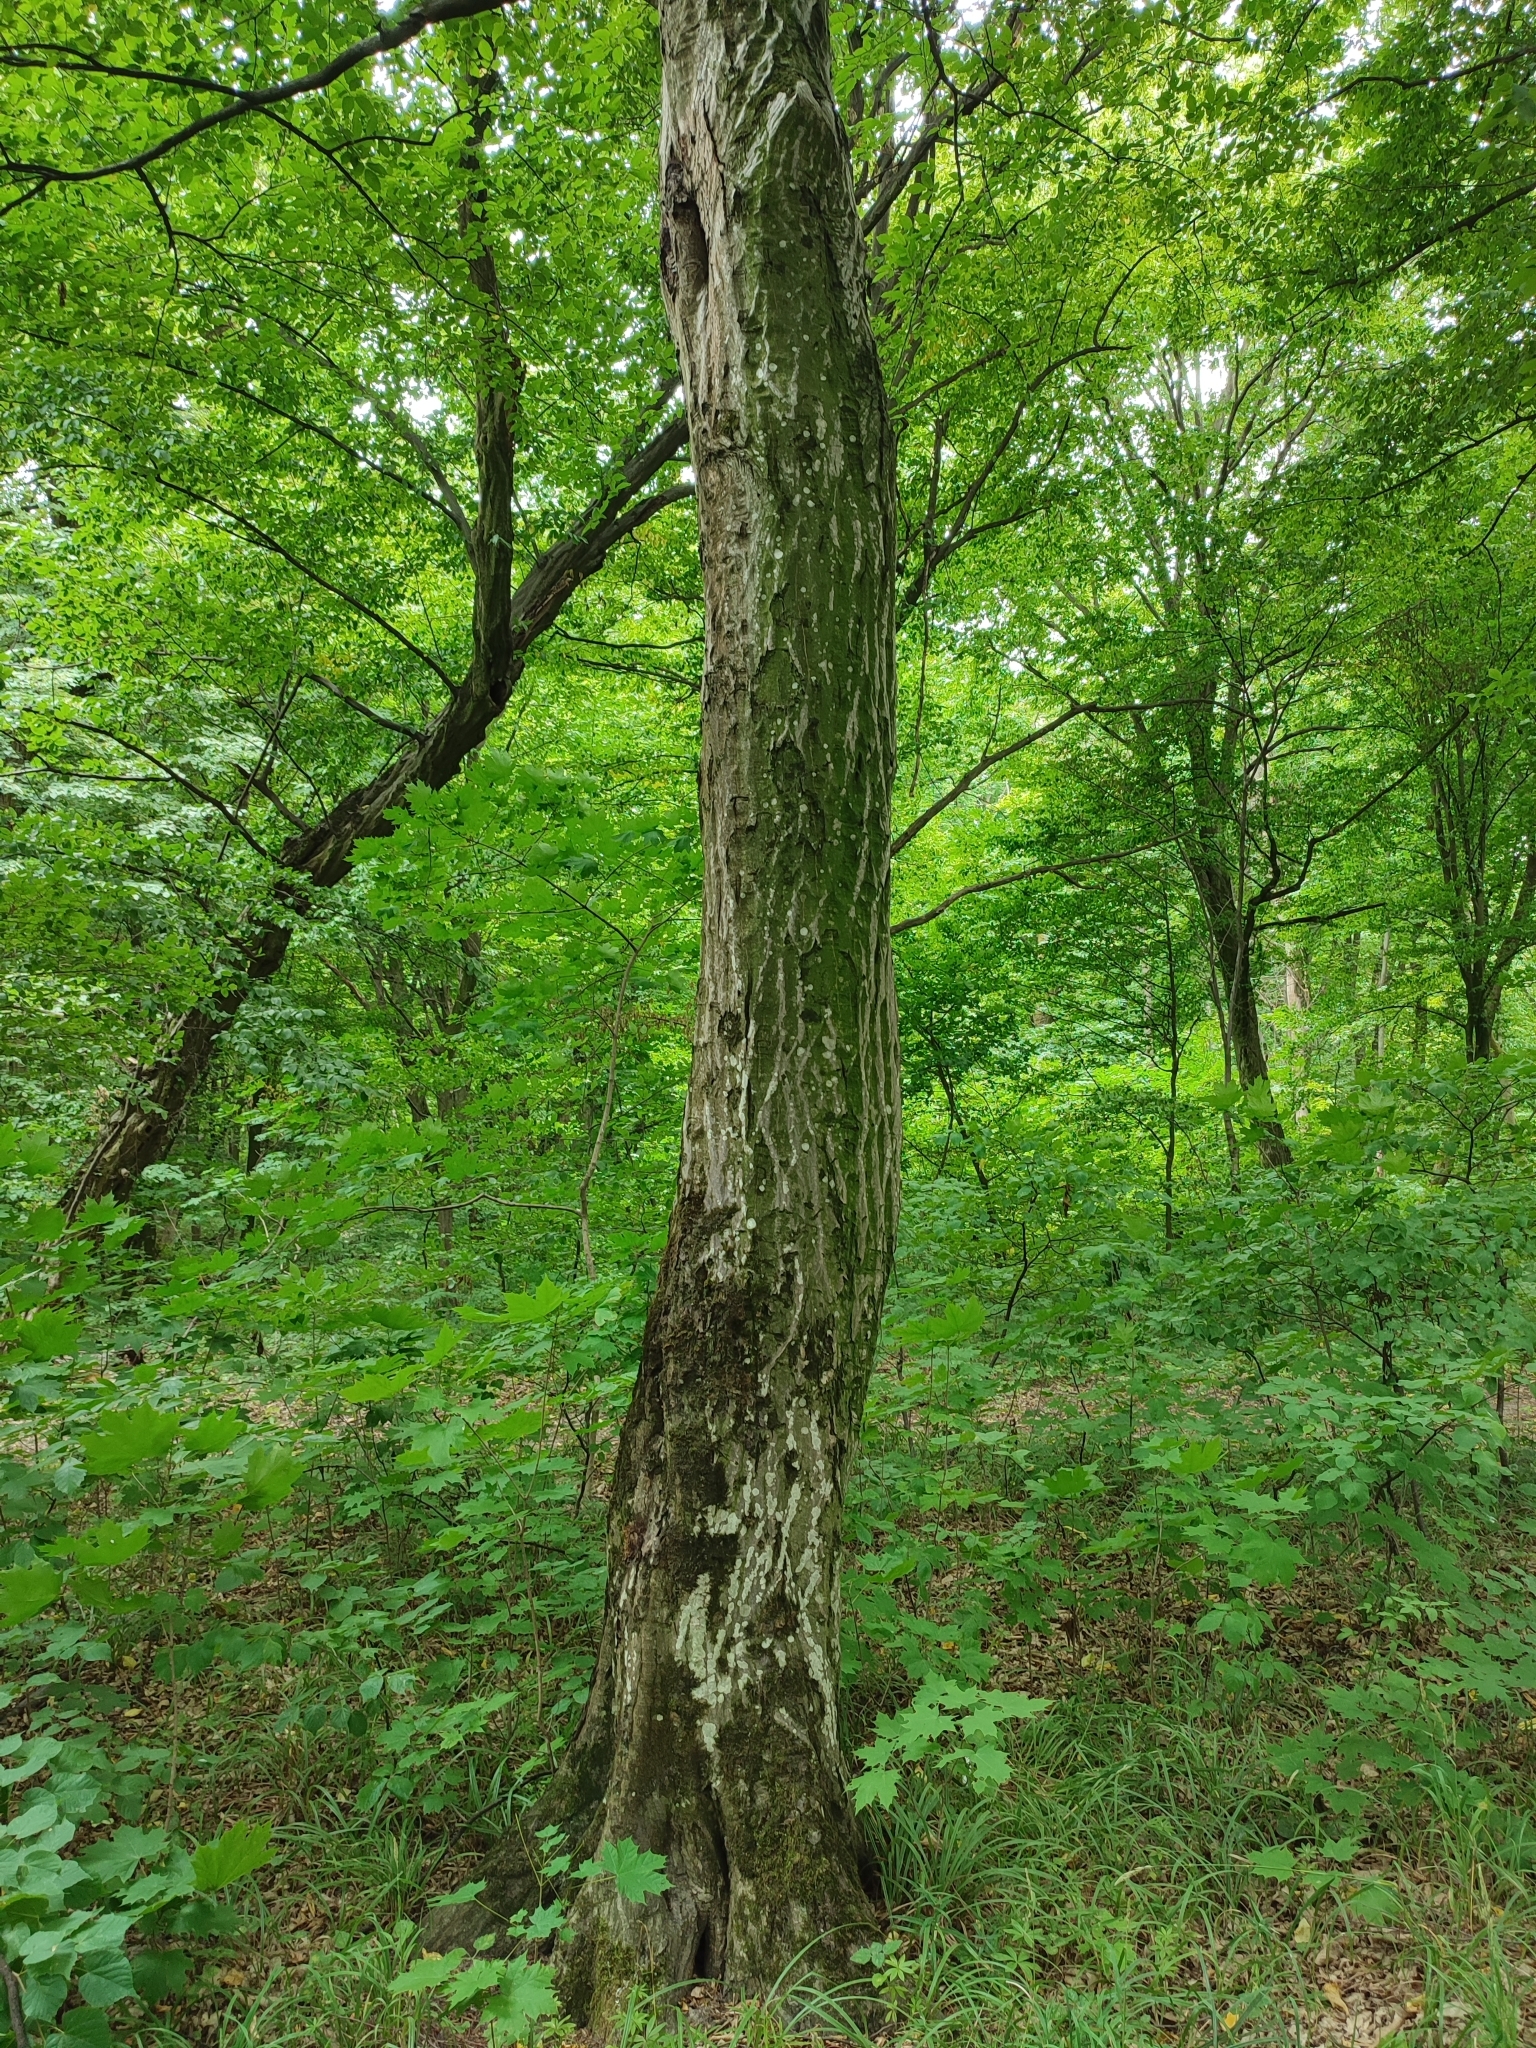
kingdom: Plantae
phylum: Tracheophyta
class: Magnoliopsida
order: Fagales
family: Betulaceae
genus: Carpinus
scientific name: Carpinus betulus
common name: Hornbeam
